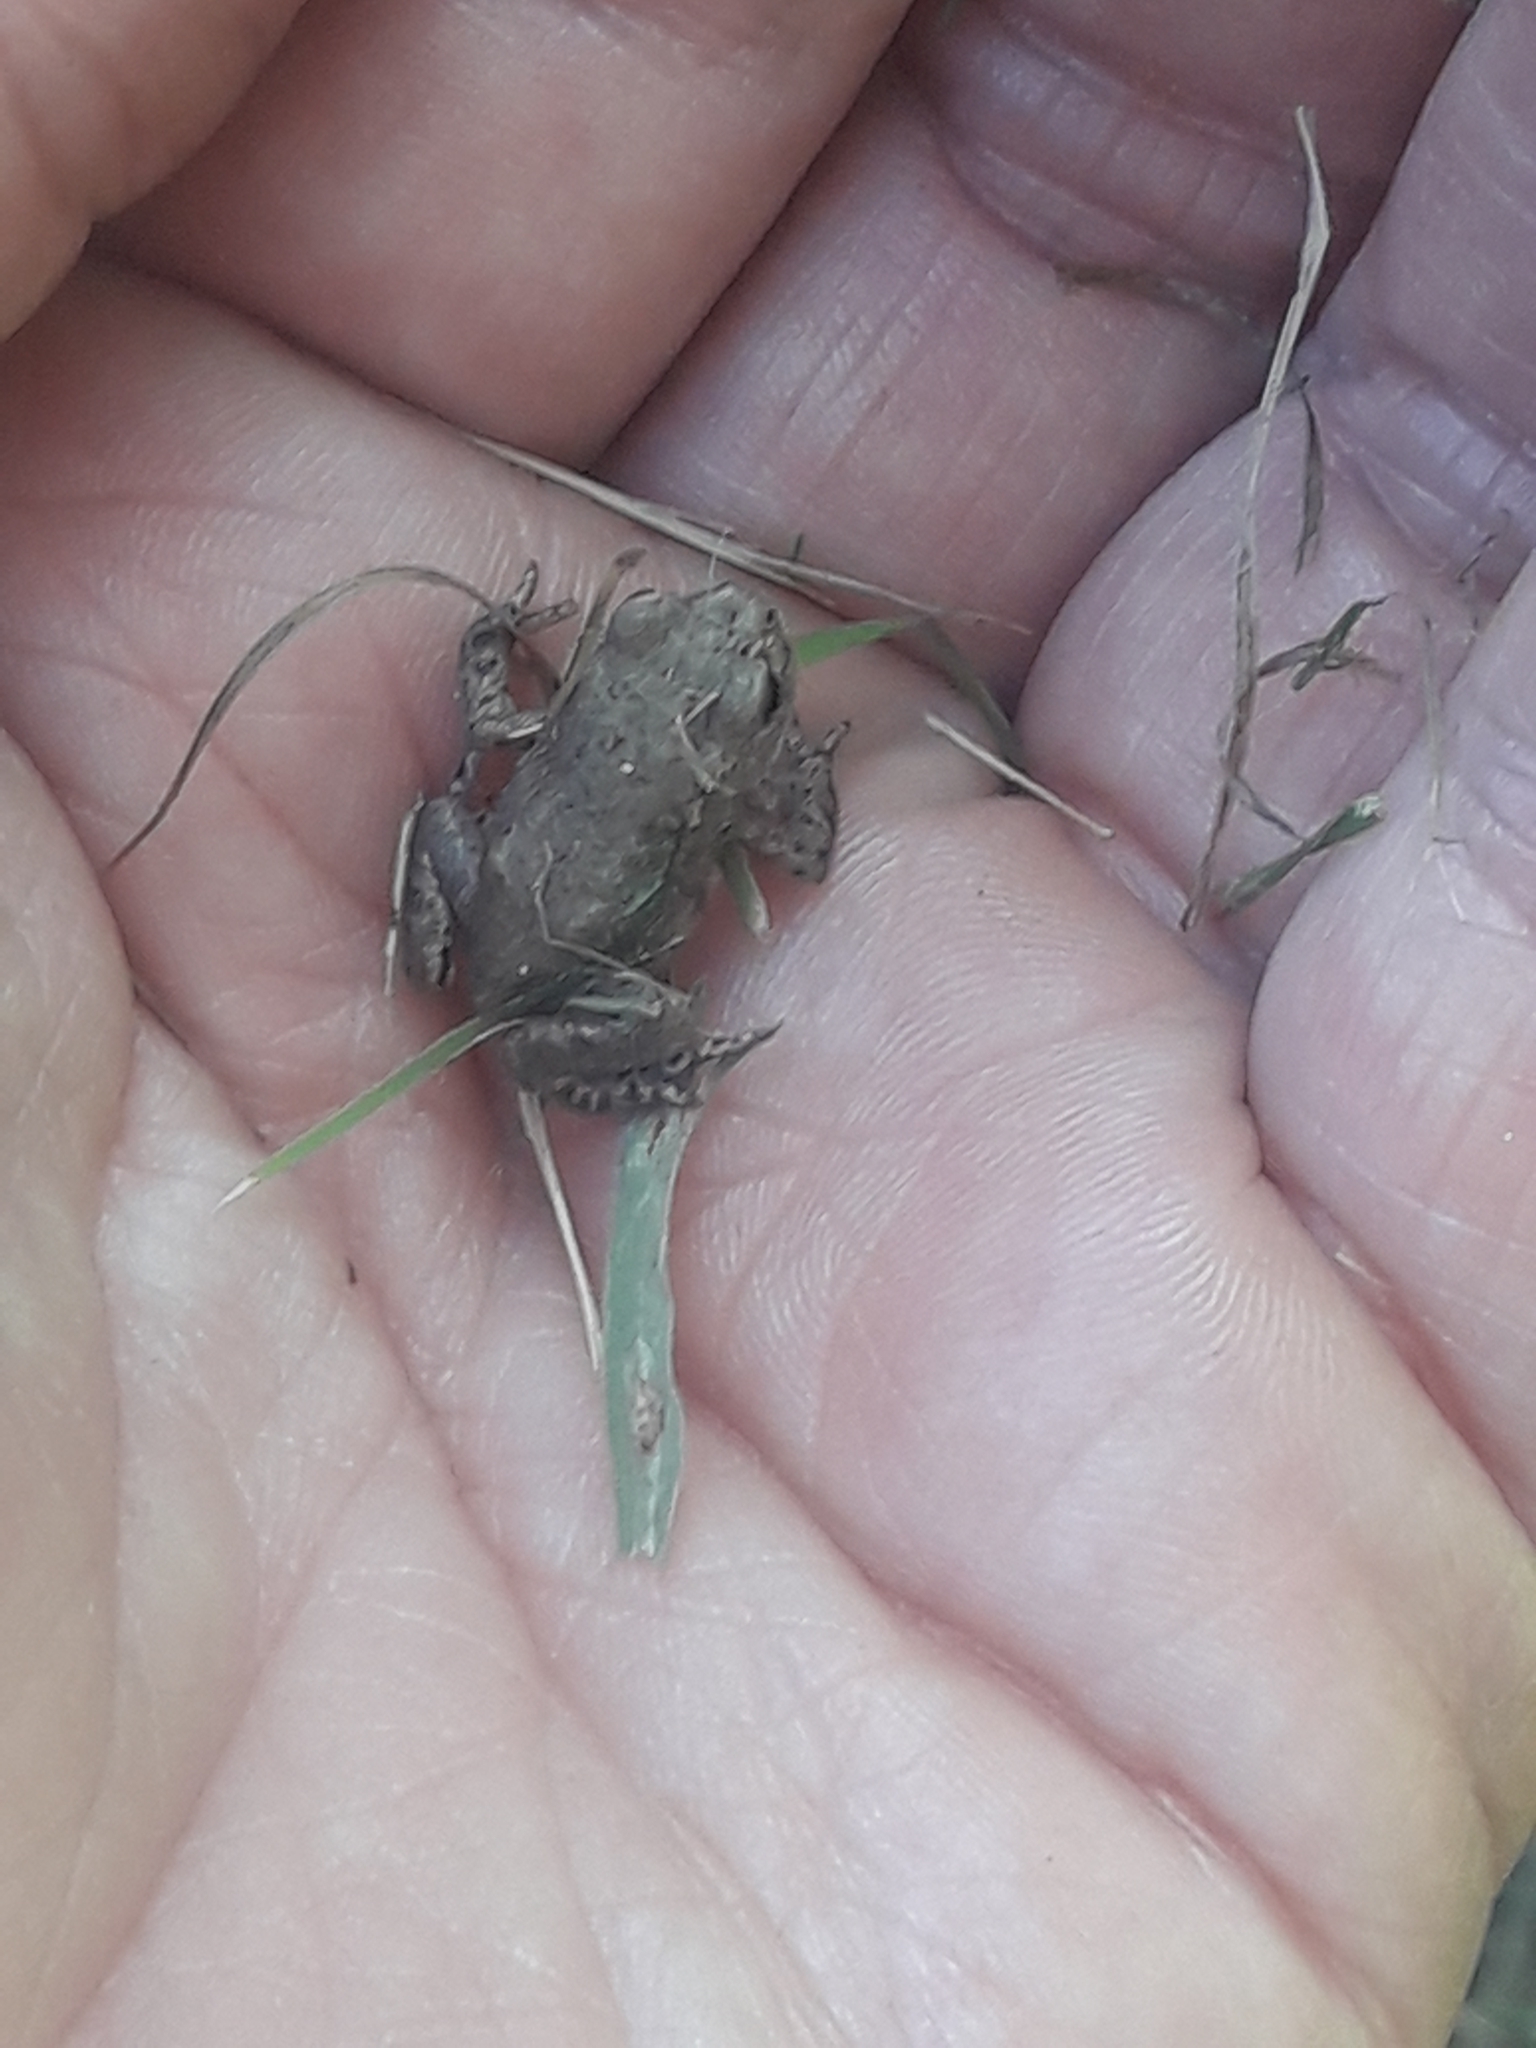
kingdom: Animalia
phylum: Chordata
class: Amphibia
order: Anura
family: Bufonidae
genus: Bufo
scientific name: Bufo bufo
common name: Common toad
